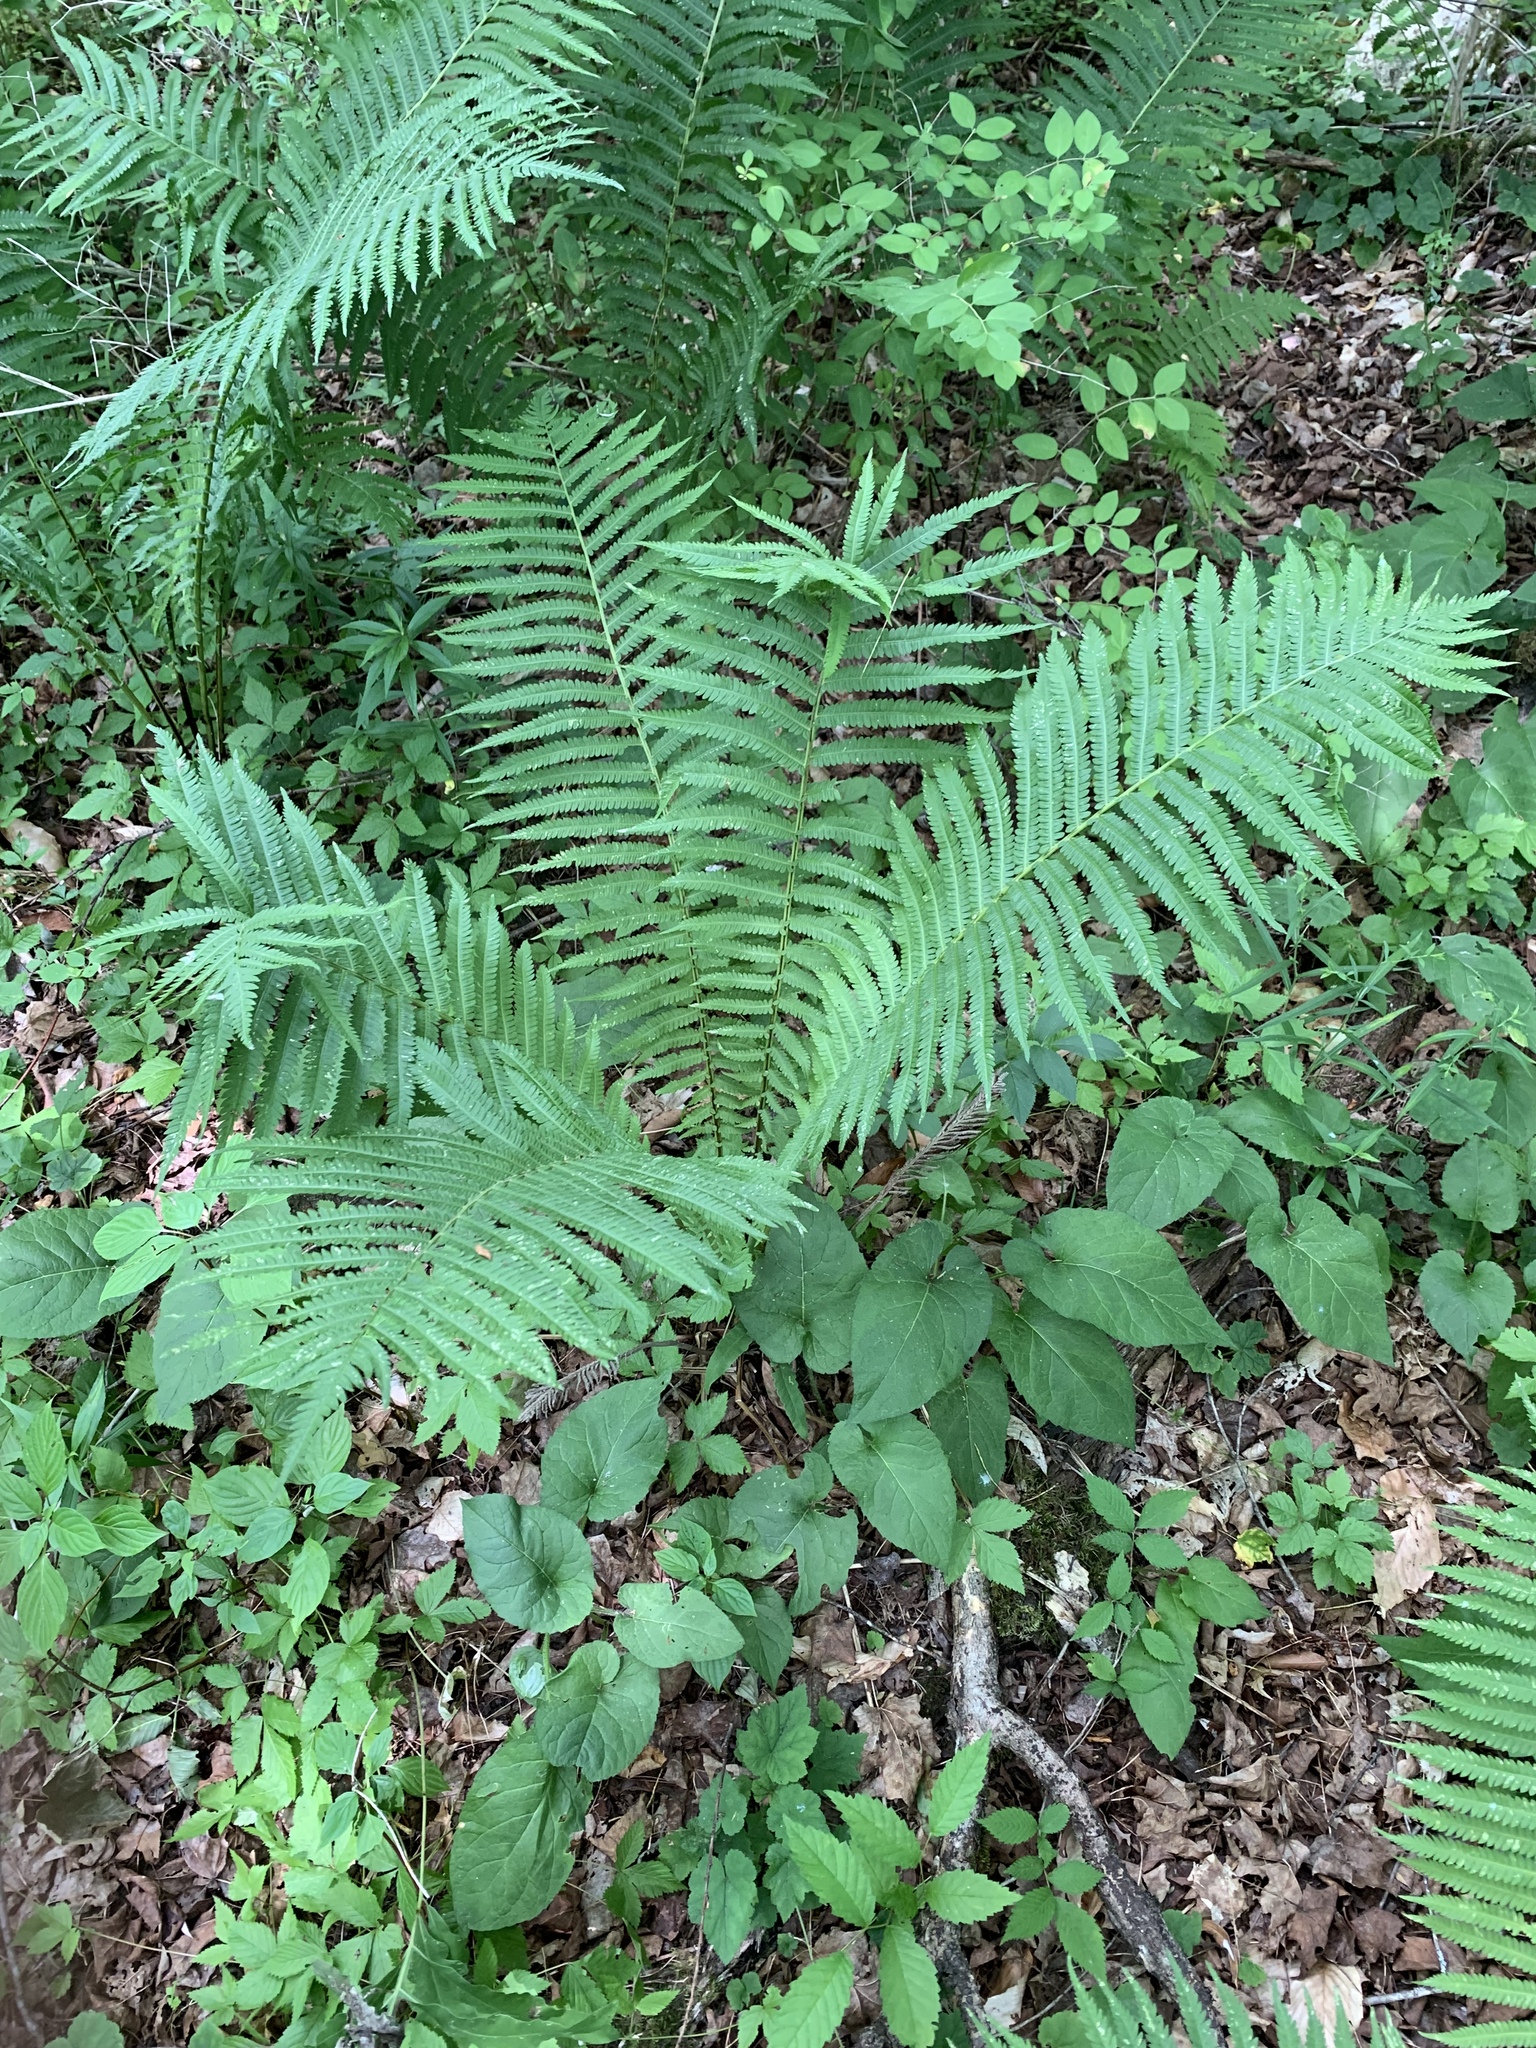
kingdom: Plantae
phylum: Tracheophyta
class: Polypodiopsida
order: Polypodiales
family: Onocleaceae
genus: Matteuccia
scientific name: Matteuccia struthiopteris
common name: Ostrich fern
